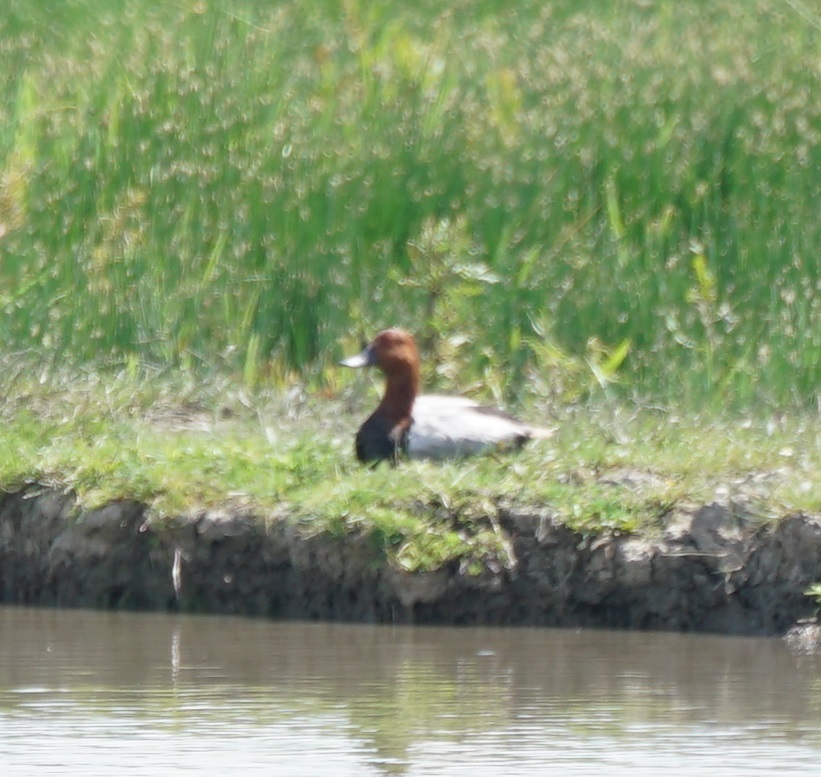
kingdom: Animalia
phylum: Chordata
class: Aves
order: Anseriformes
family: Anatidae
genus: Aythya
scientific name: Aythya ferina
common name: Common pochard
